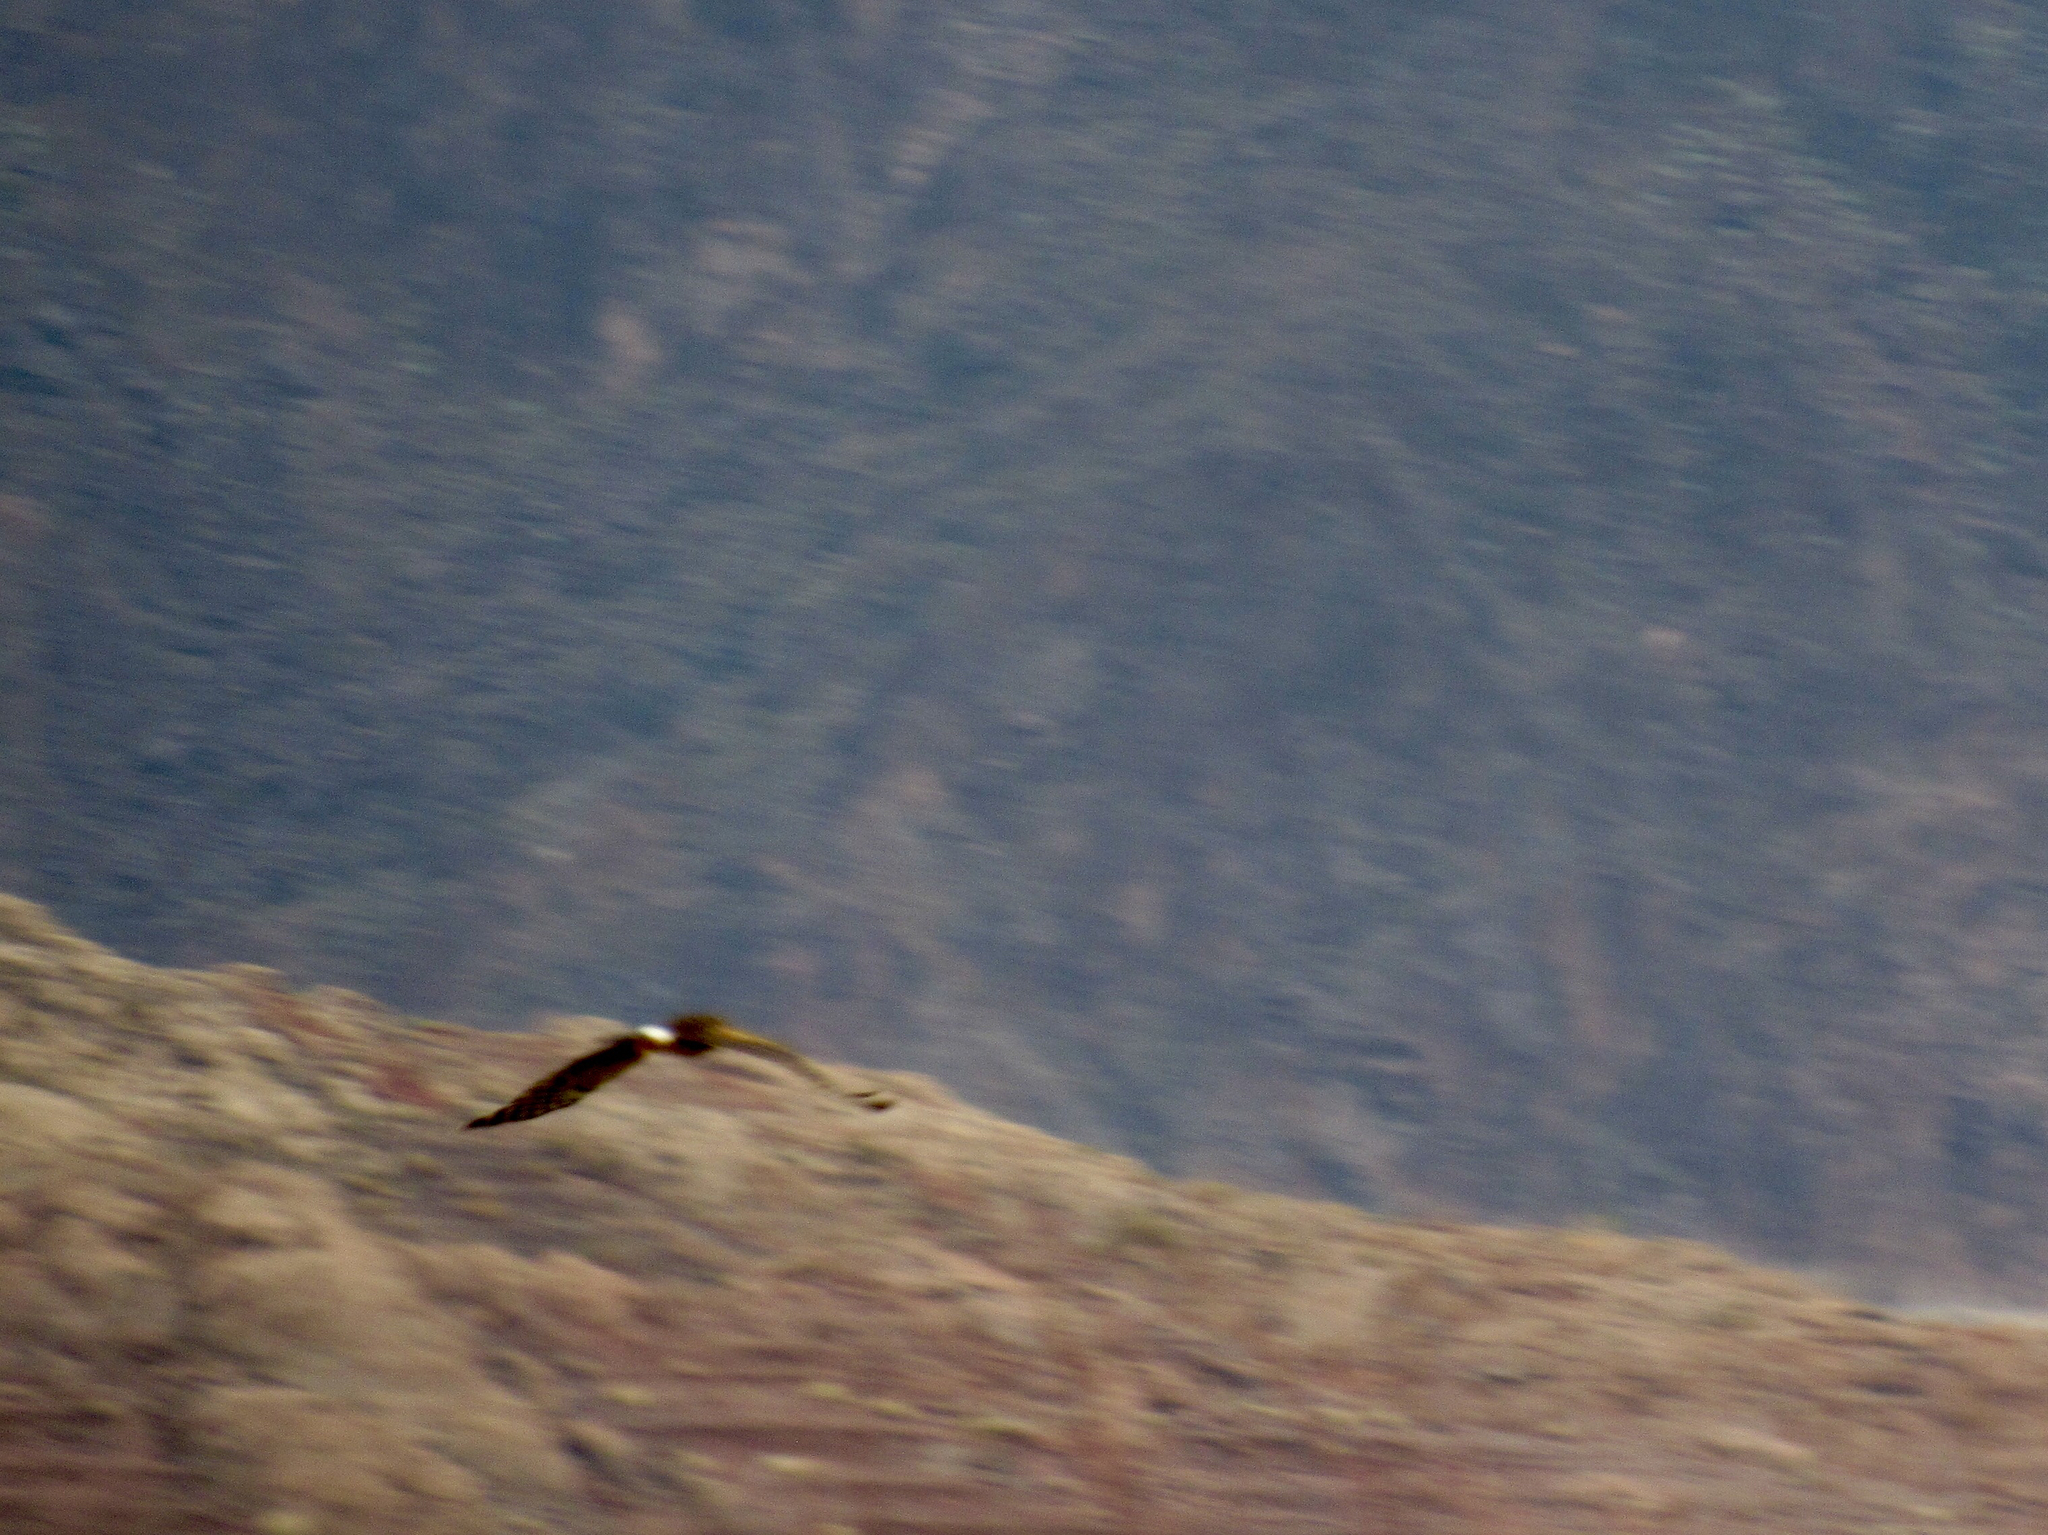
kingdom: Animalia
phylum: Chordata
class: Aves
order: Accipitriformes
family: Accipitridae
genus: Circus
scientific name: Circus cyaneus
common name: Hen harrier
